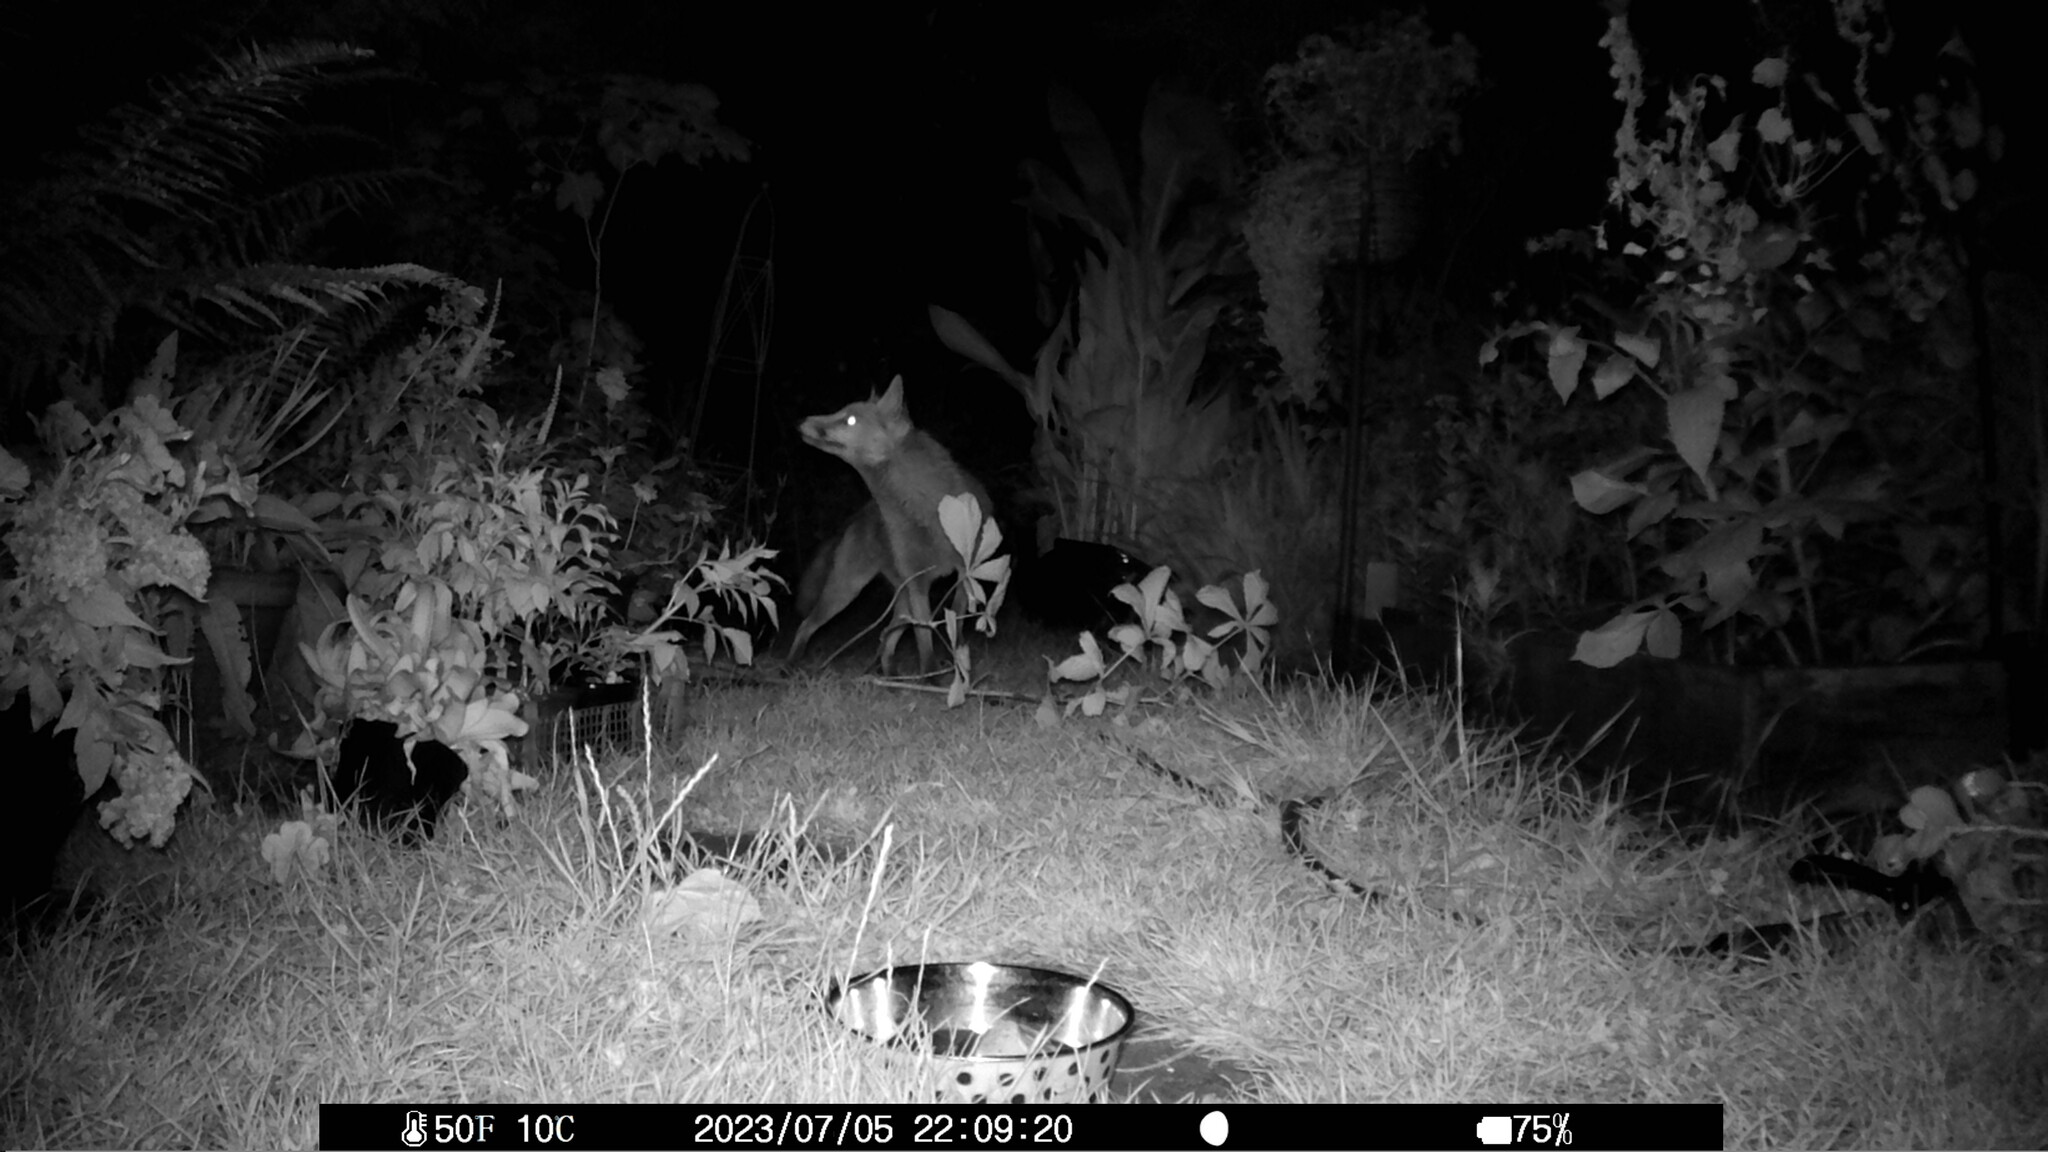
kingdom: Animalia
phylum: Chordata
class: Mammalia
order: Carnivora
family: Canidae
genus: Vulpes
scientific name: Vulpes vulpes
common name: Red fox
